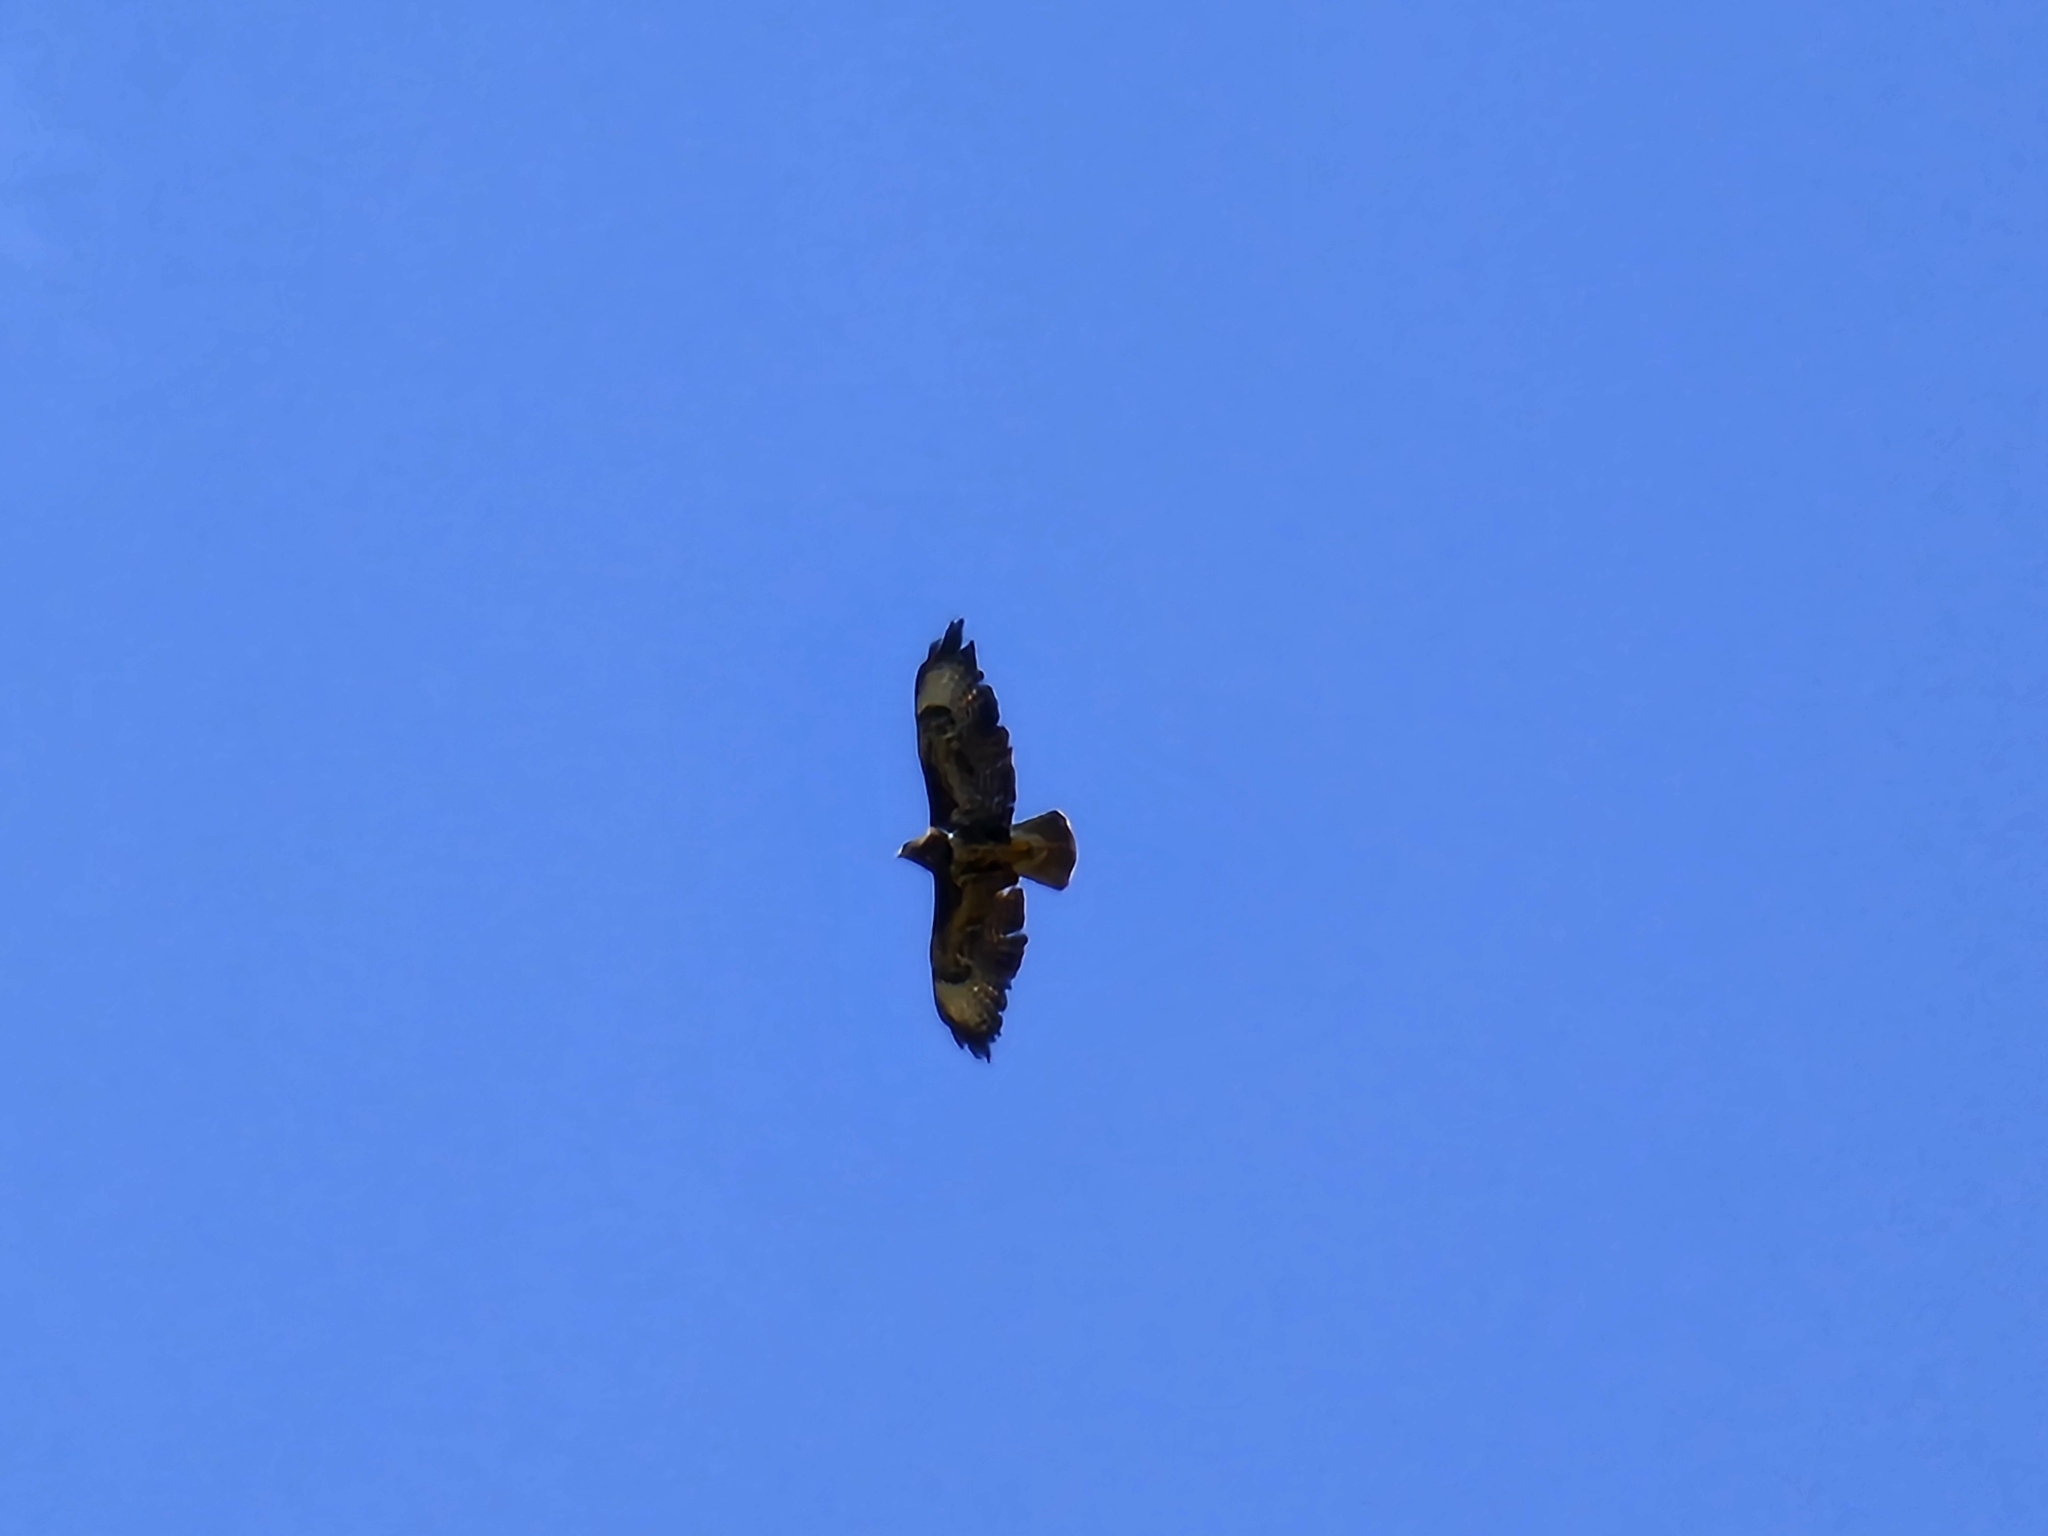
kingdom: Animalia
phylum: Chordata
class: Aves
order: Accipitriformes
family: Accipitridae
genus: Buteo
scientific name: Buteo buteo
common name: Common buzzard
